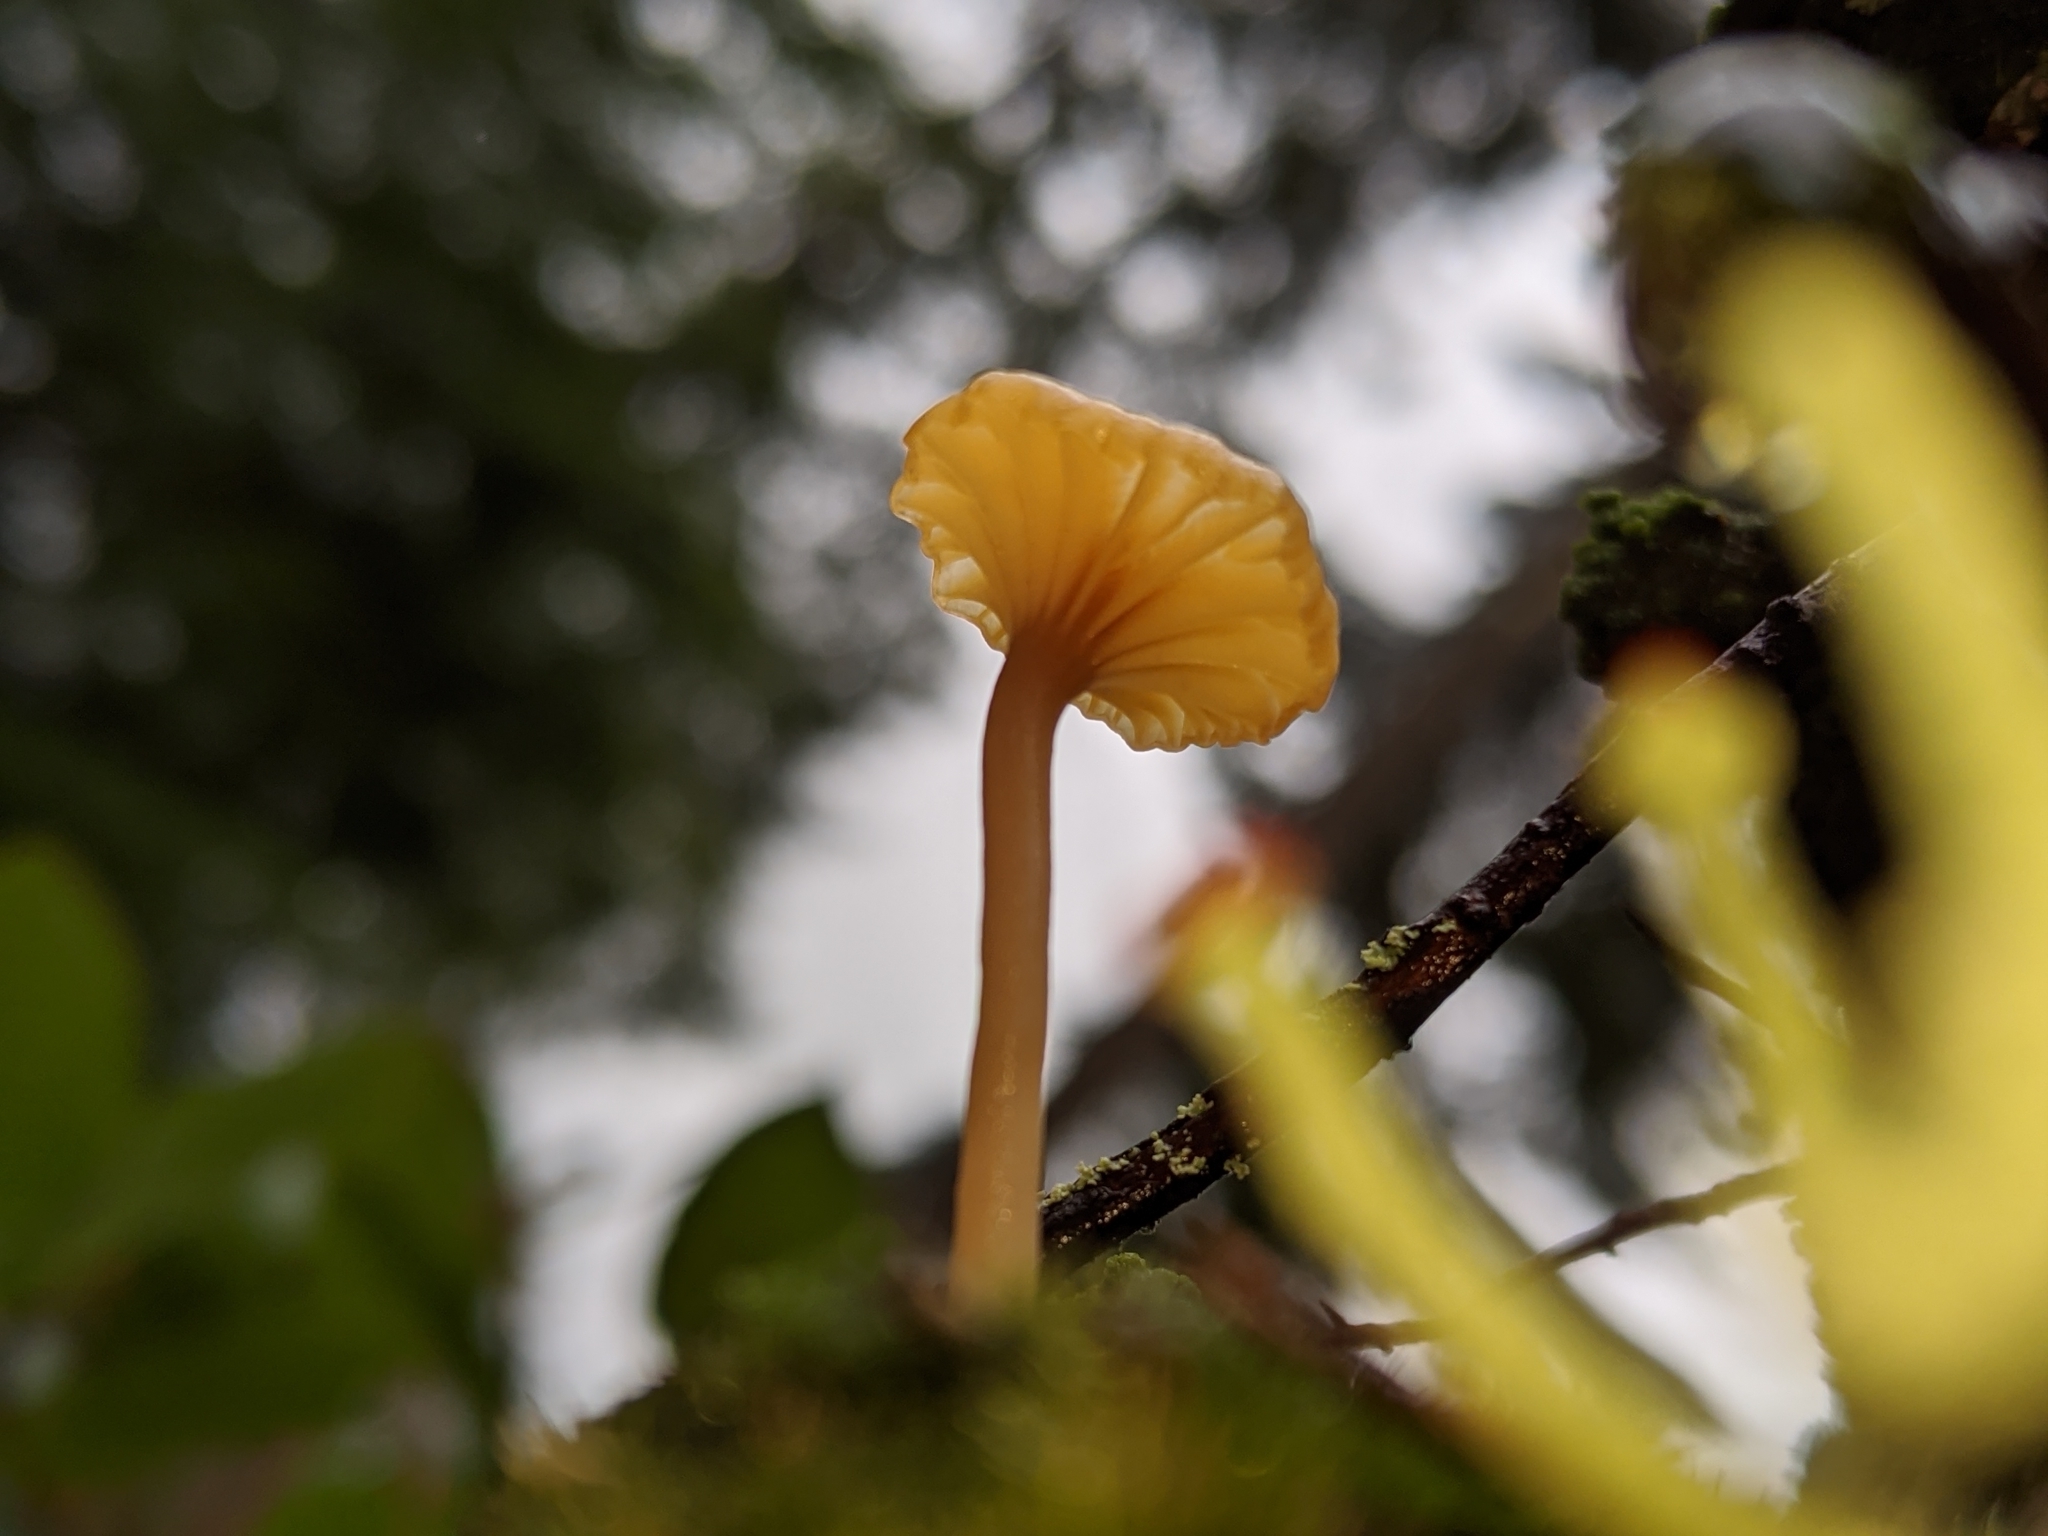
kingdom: Fungi
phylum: Basidiomycota
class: Agaricomycetes
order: Agaricales
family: Hygrophoraceae
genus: Lichenomphalia
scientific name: Lichenomphalia
